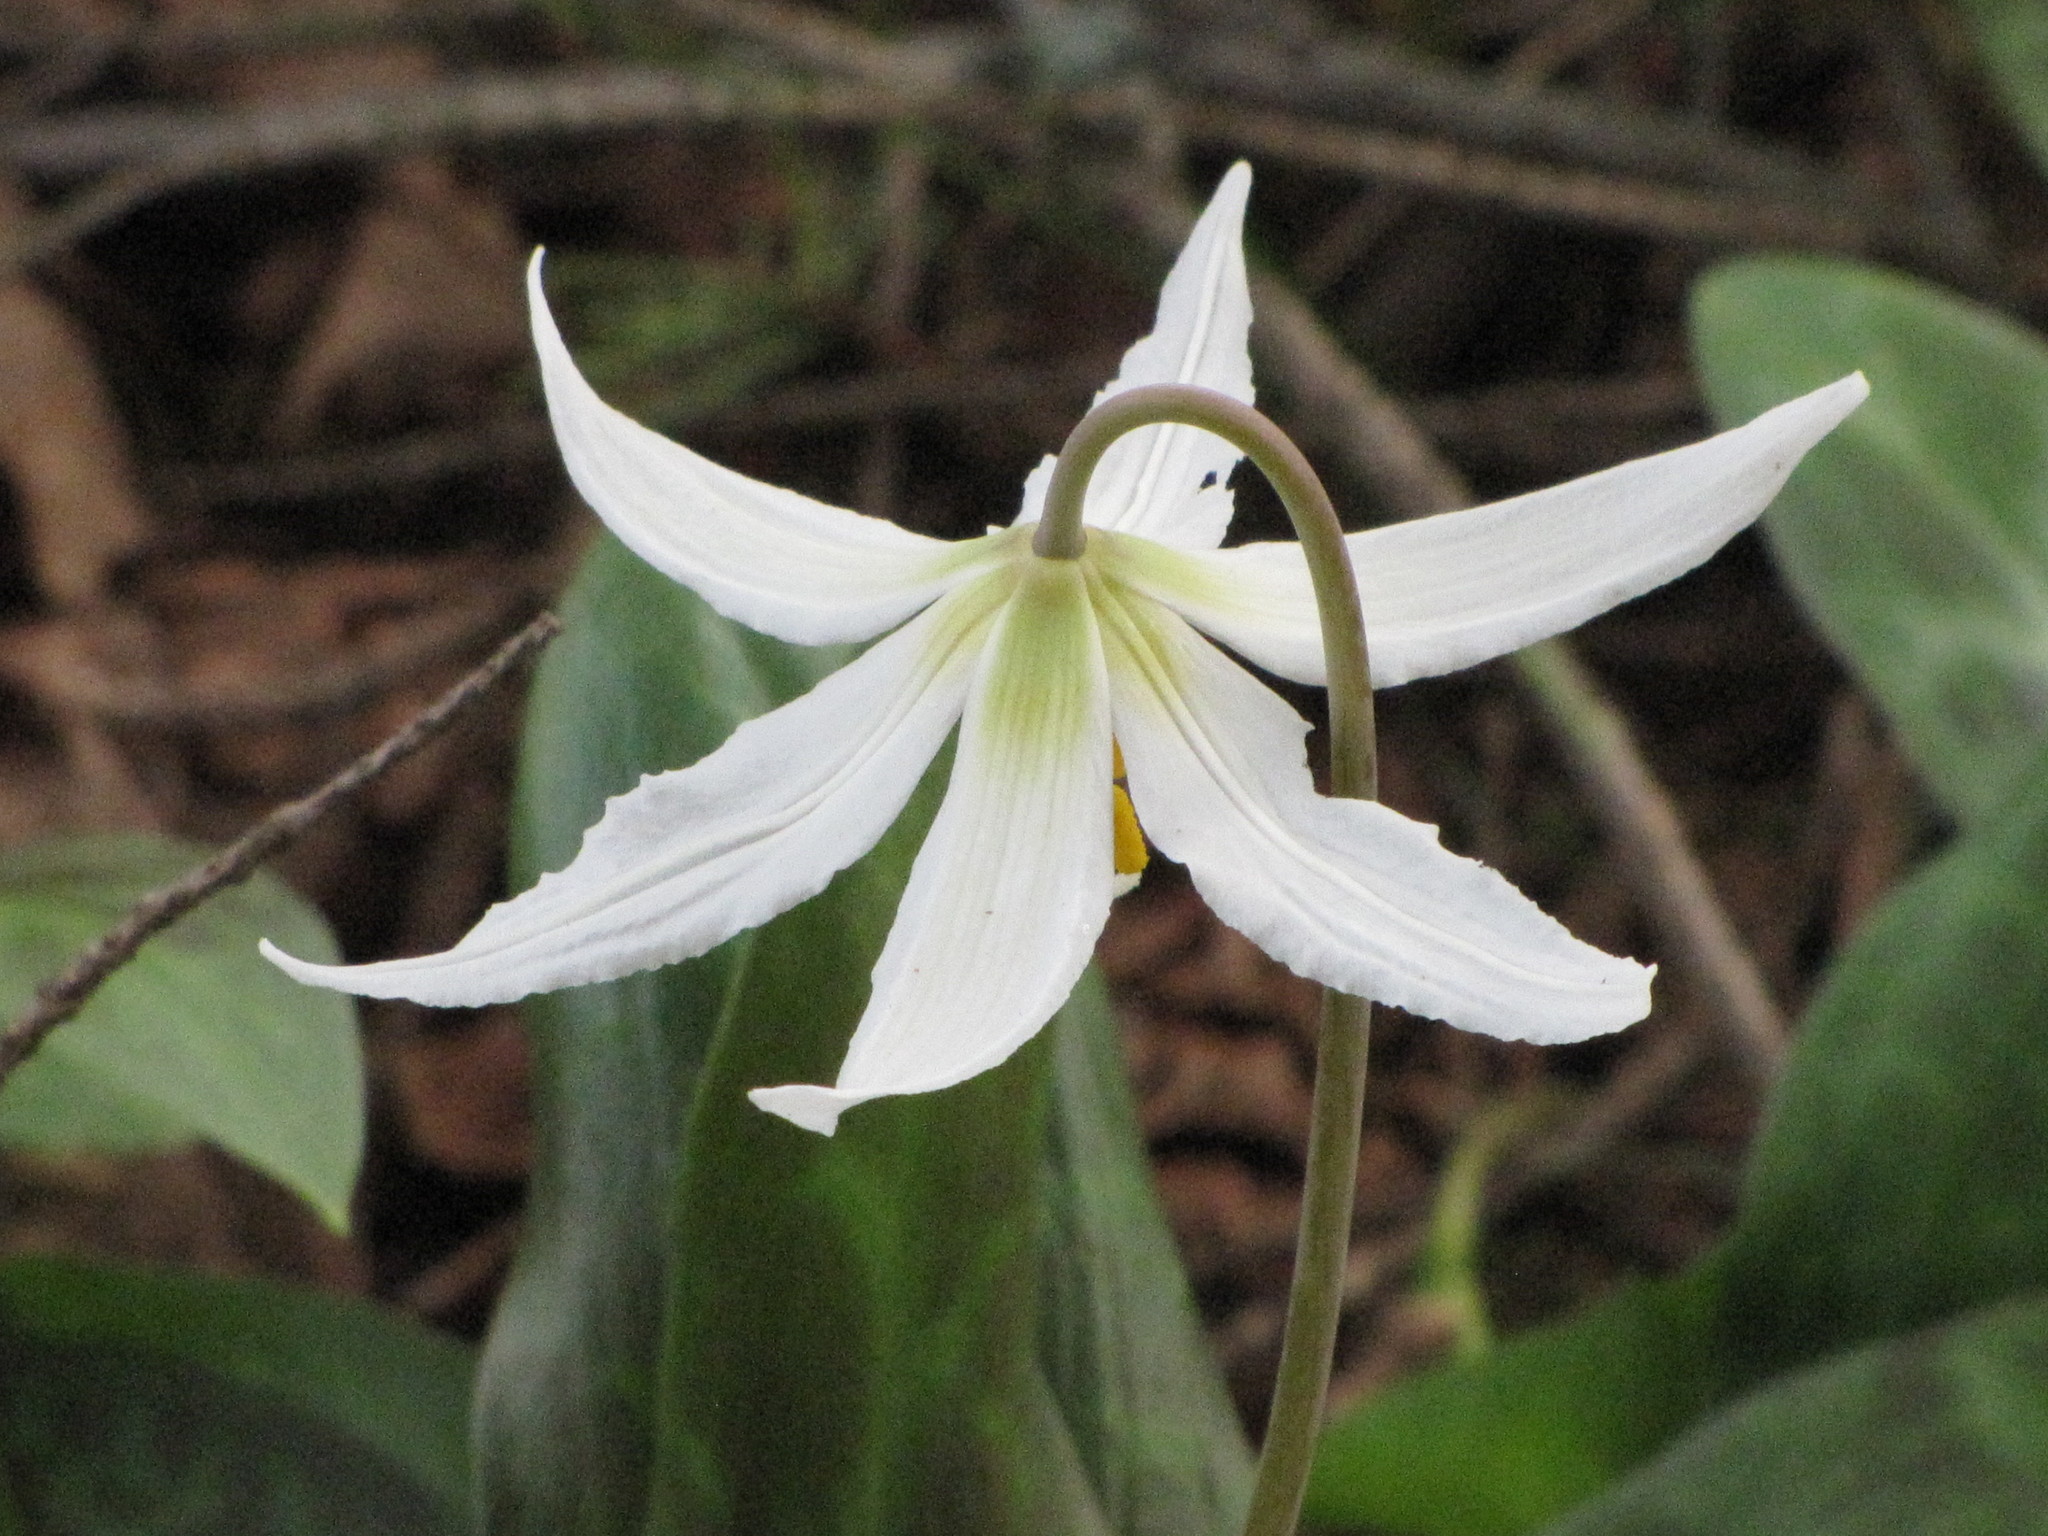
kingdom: Plantae
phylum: Tracheophyta
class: Liliopsida
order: Liliales
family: Liliaceae
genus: Erythronium
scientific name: Erythronium oregonum
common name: Giant adder's-tongue
